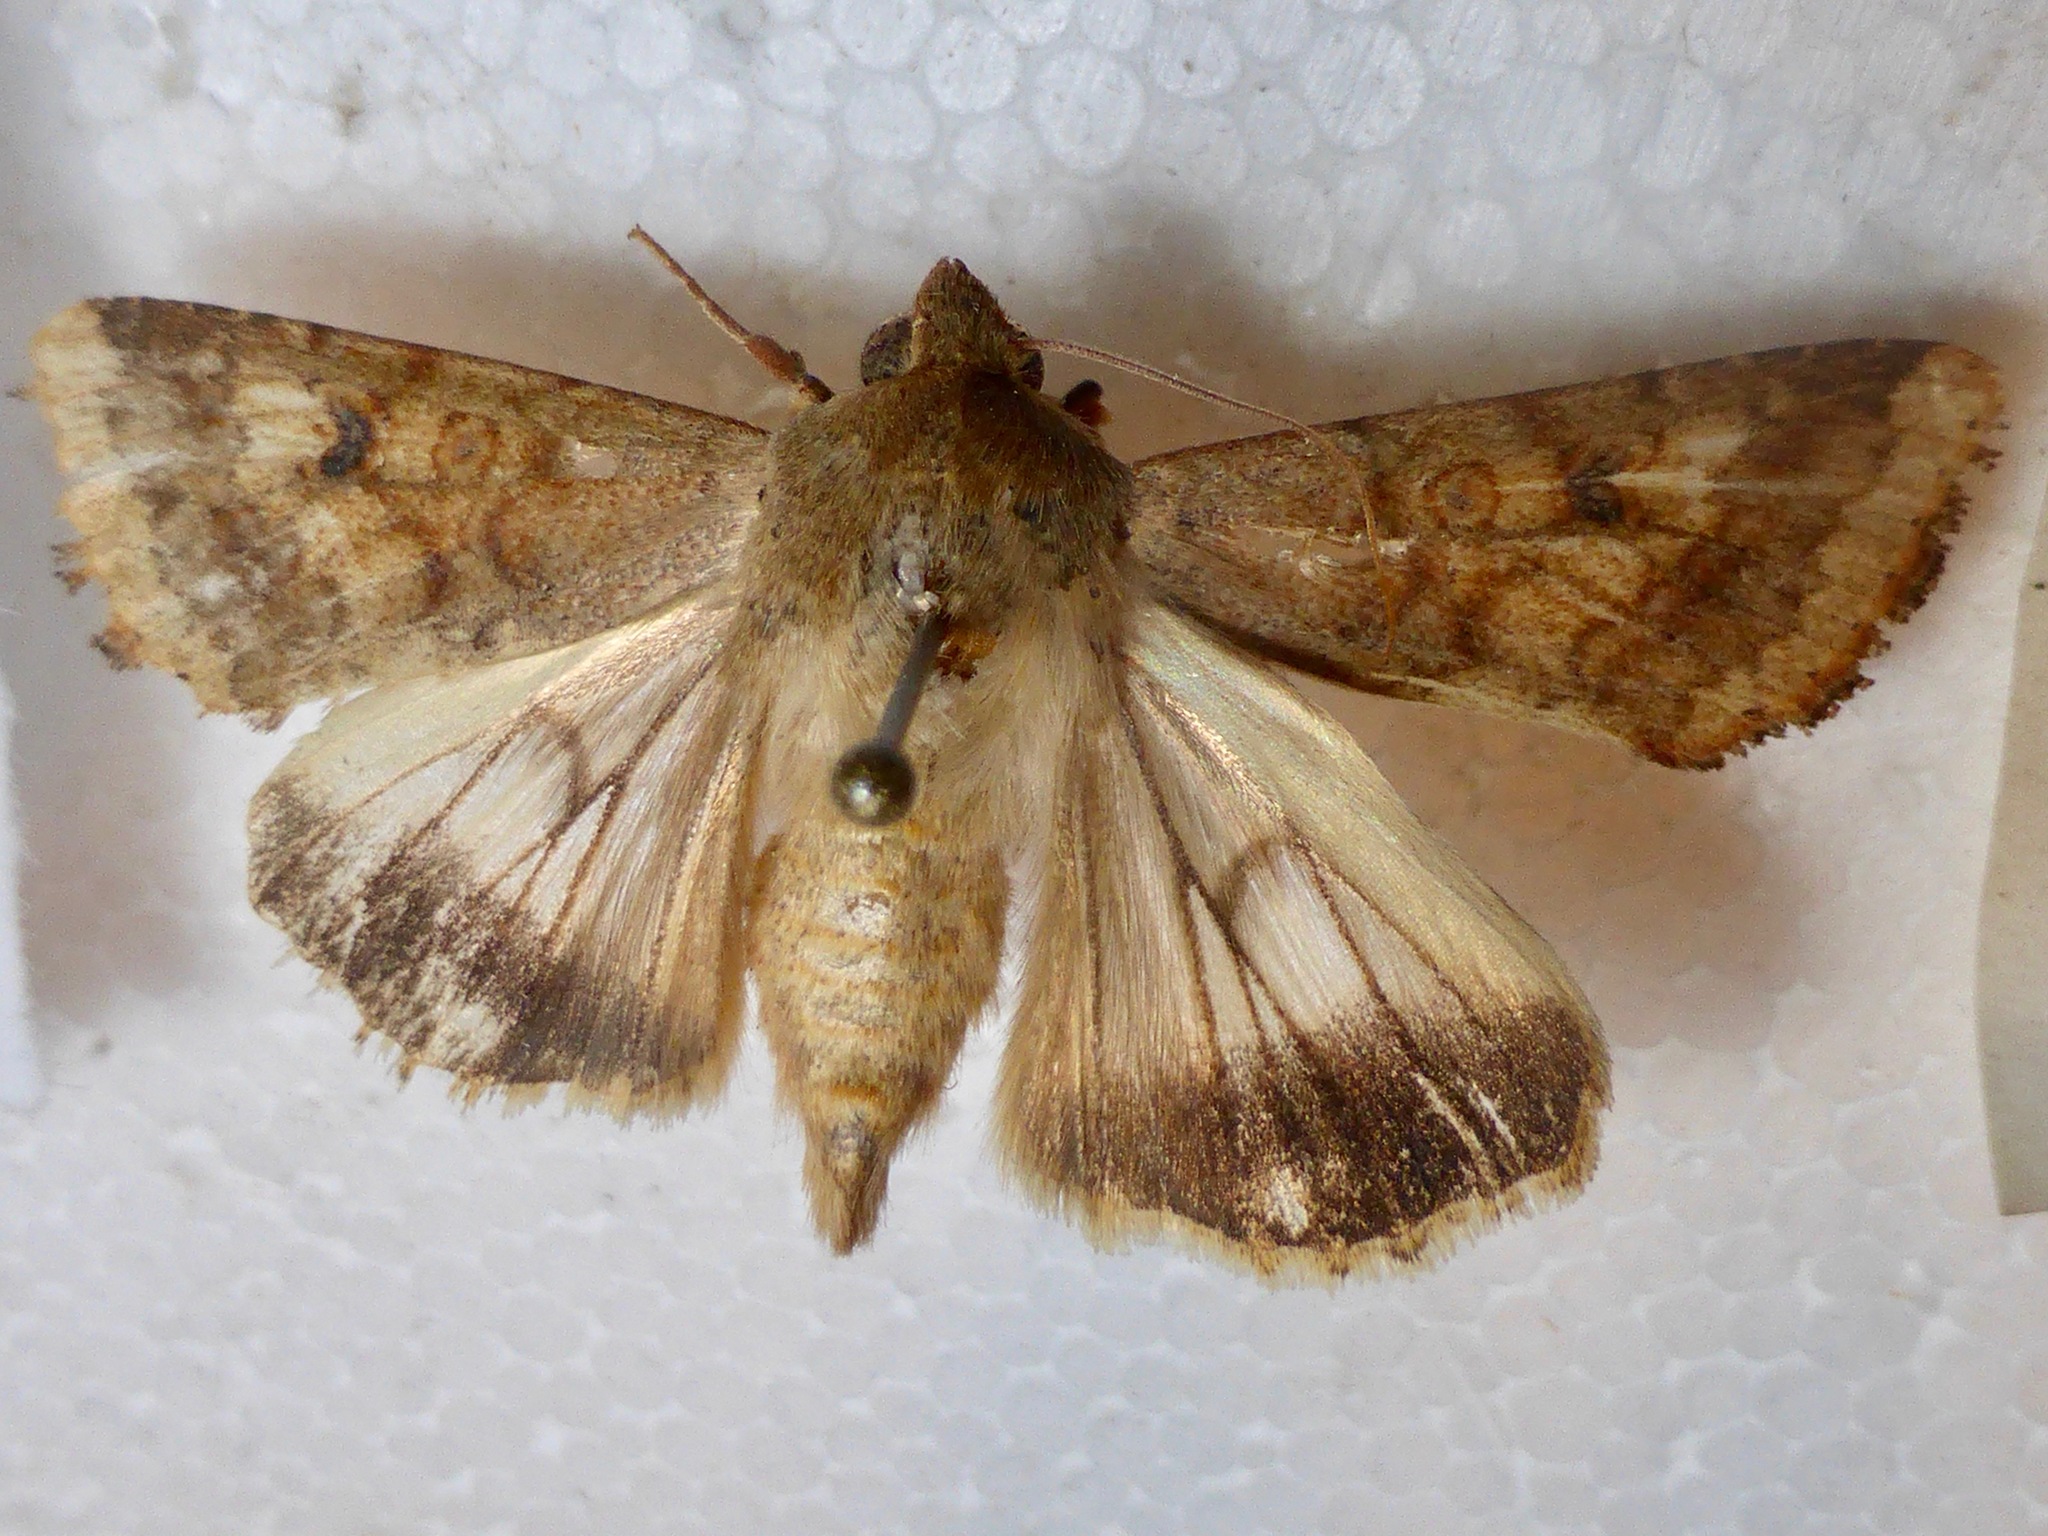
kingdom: Animalia
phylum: Arthropoda
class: Insecta
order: Lepidoptera
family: Noctuidae
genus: Helicoverpa
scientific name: Helicoverpa armigera
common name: Cotton bollworm
